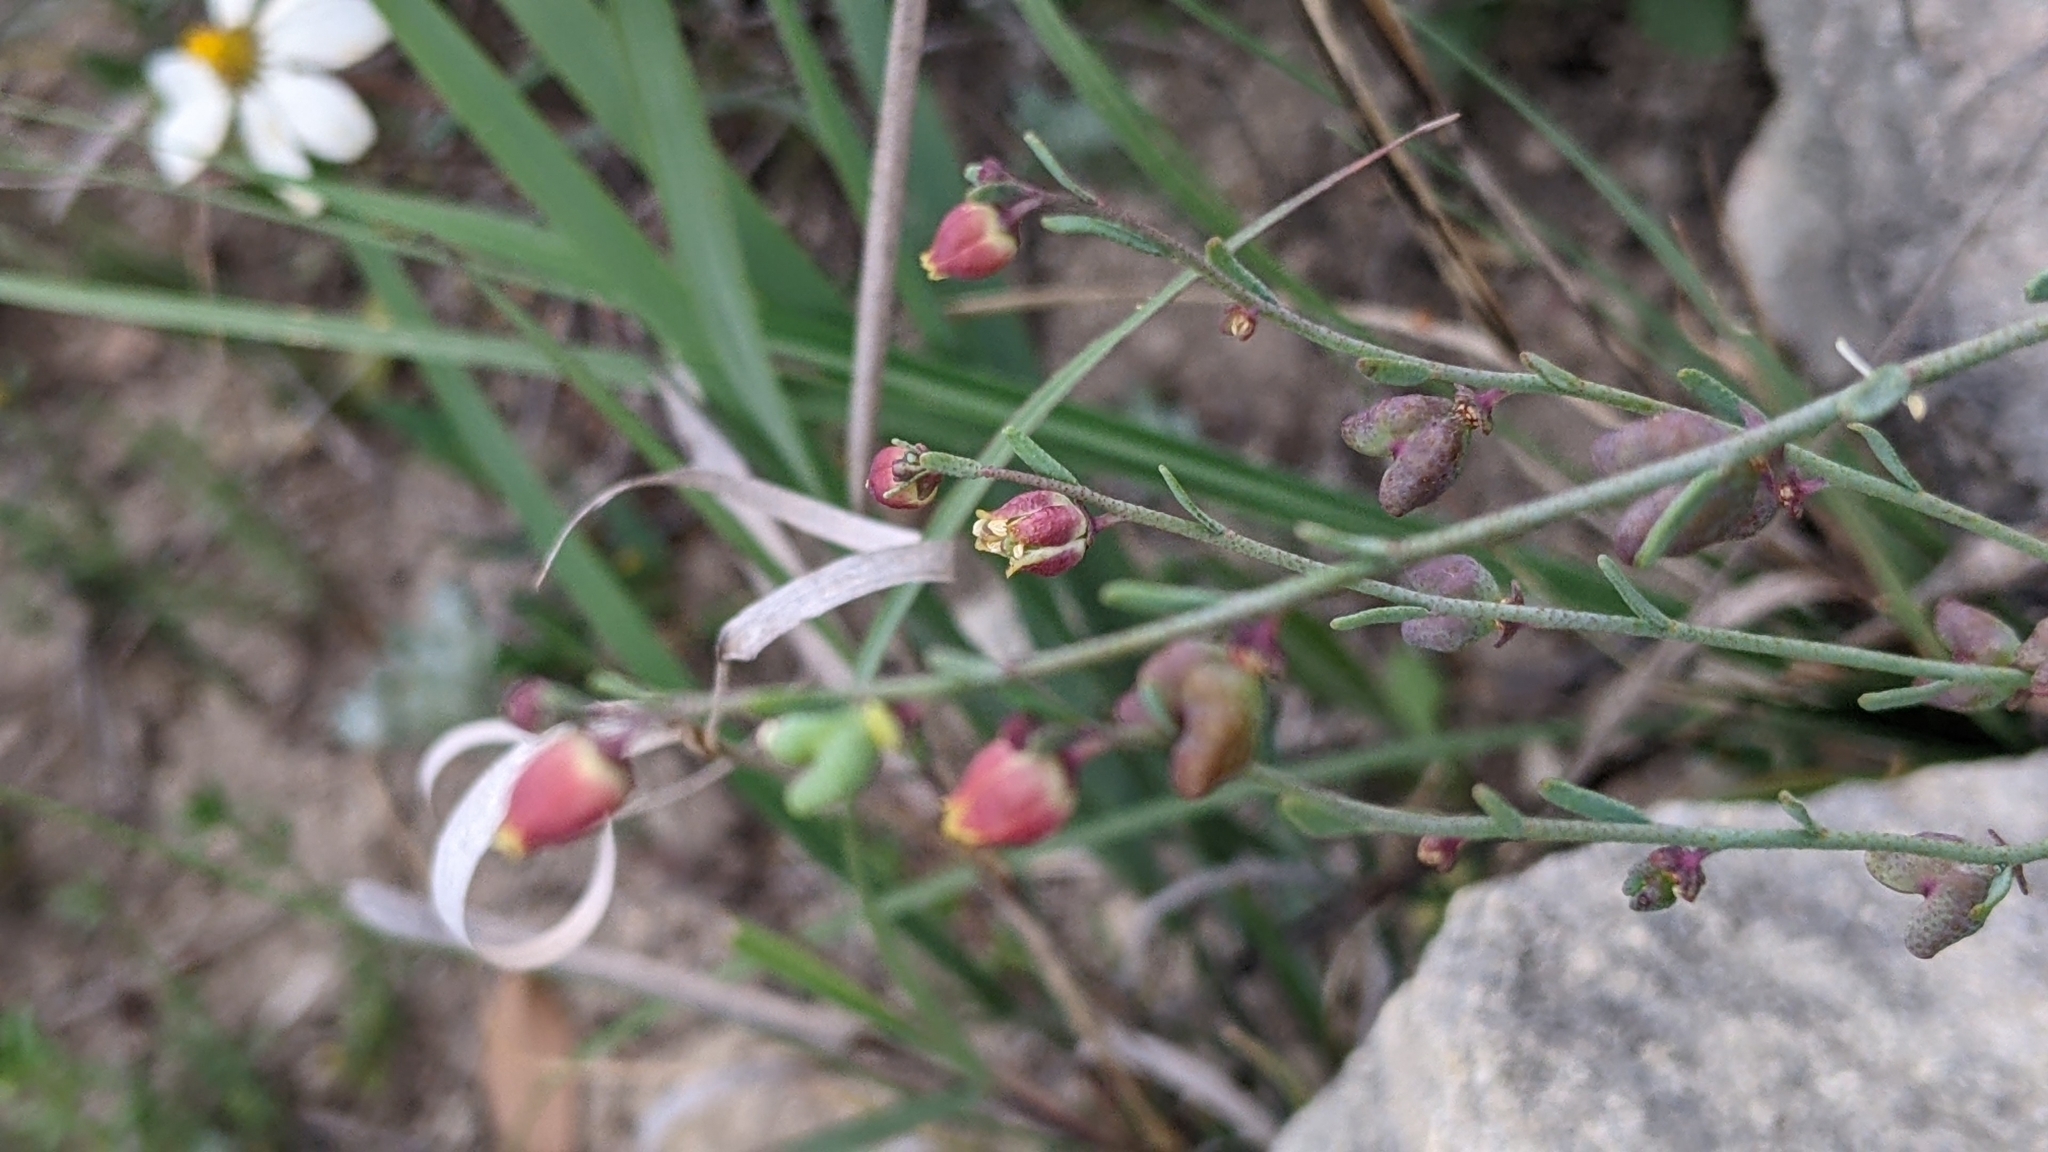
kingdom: Plantae
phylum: Tracheophyta
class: Magnoliopsida
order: Sapindales
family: Rutaceae
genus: Thamnosma
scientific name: Thamnosma texana
